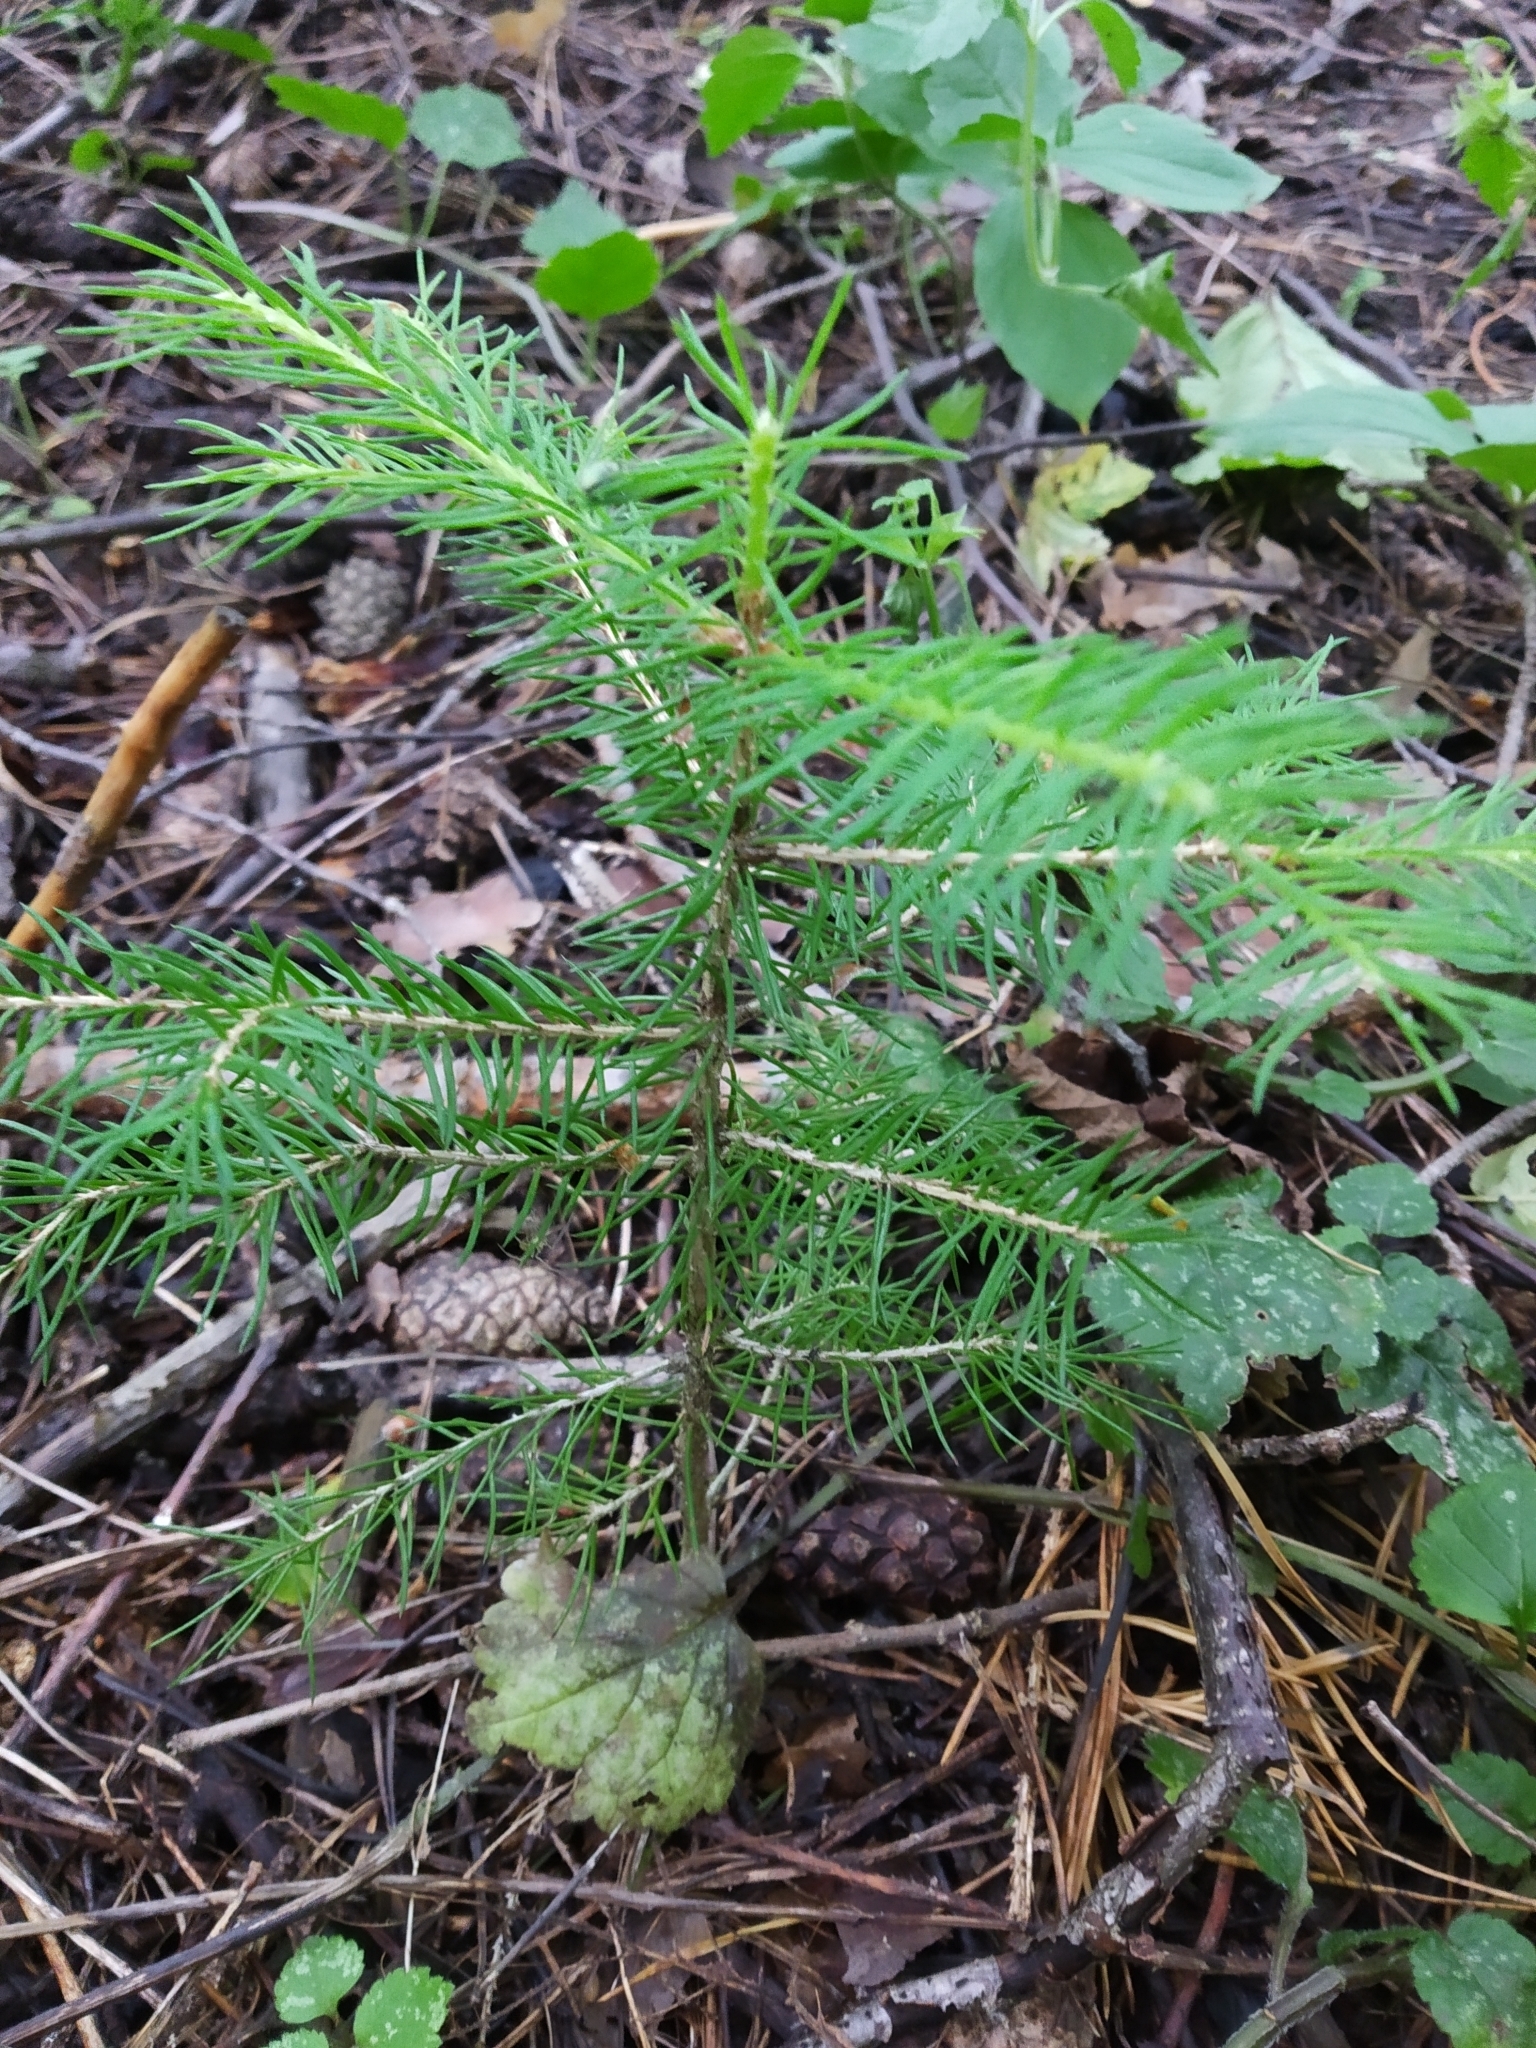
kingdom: Plantae
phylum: Tracheophyta
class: Pinopsida
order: Pinales
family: Pinaceae
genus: Picea
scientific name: Picea abies
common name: Norway spruce
